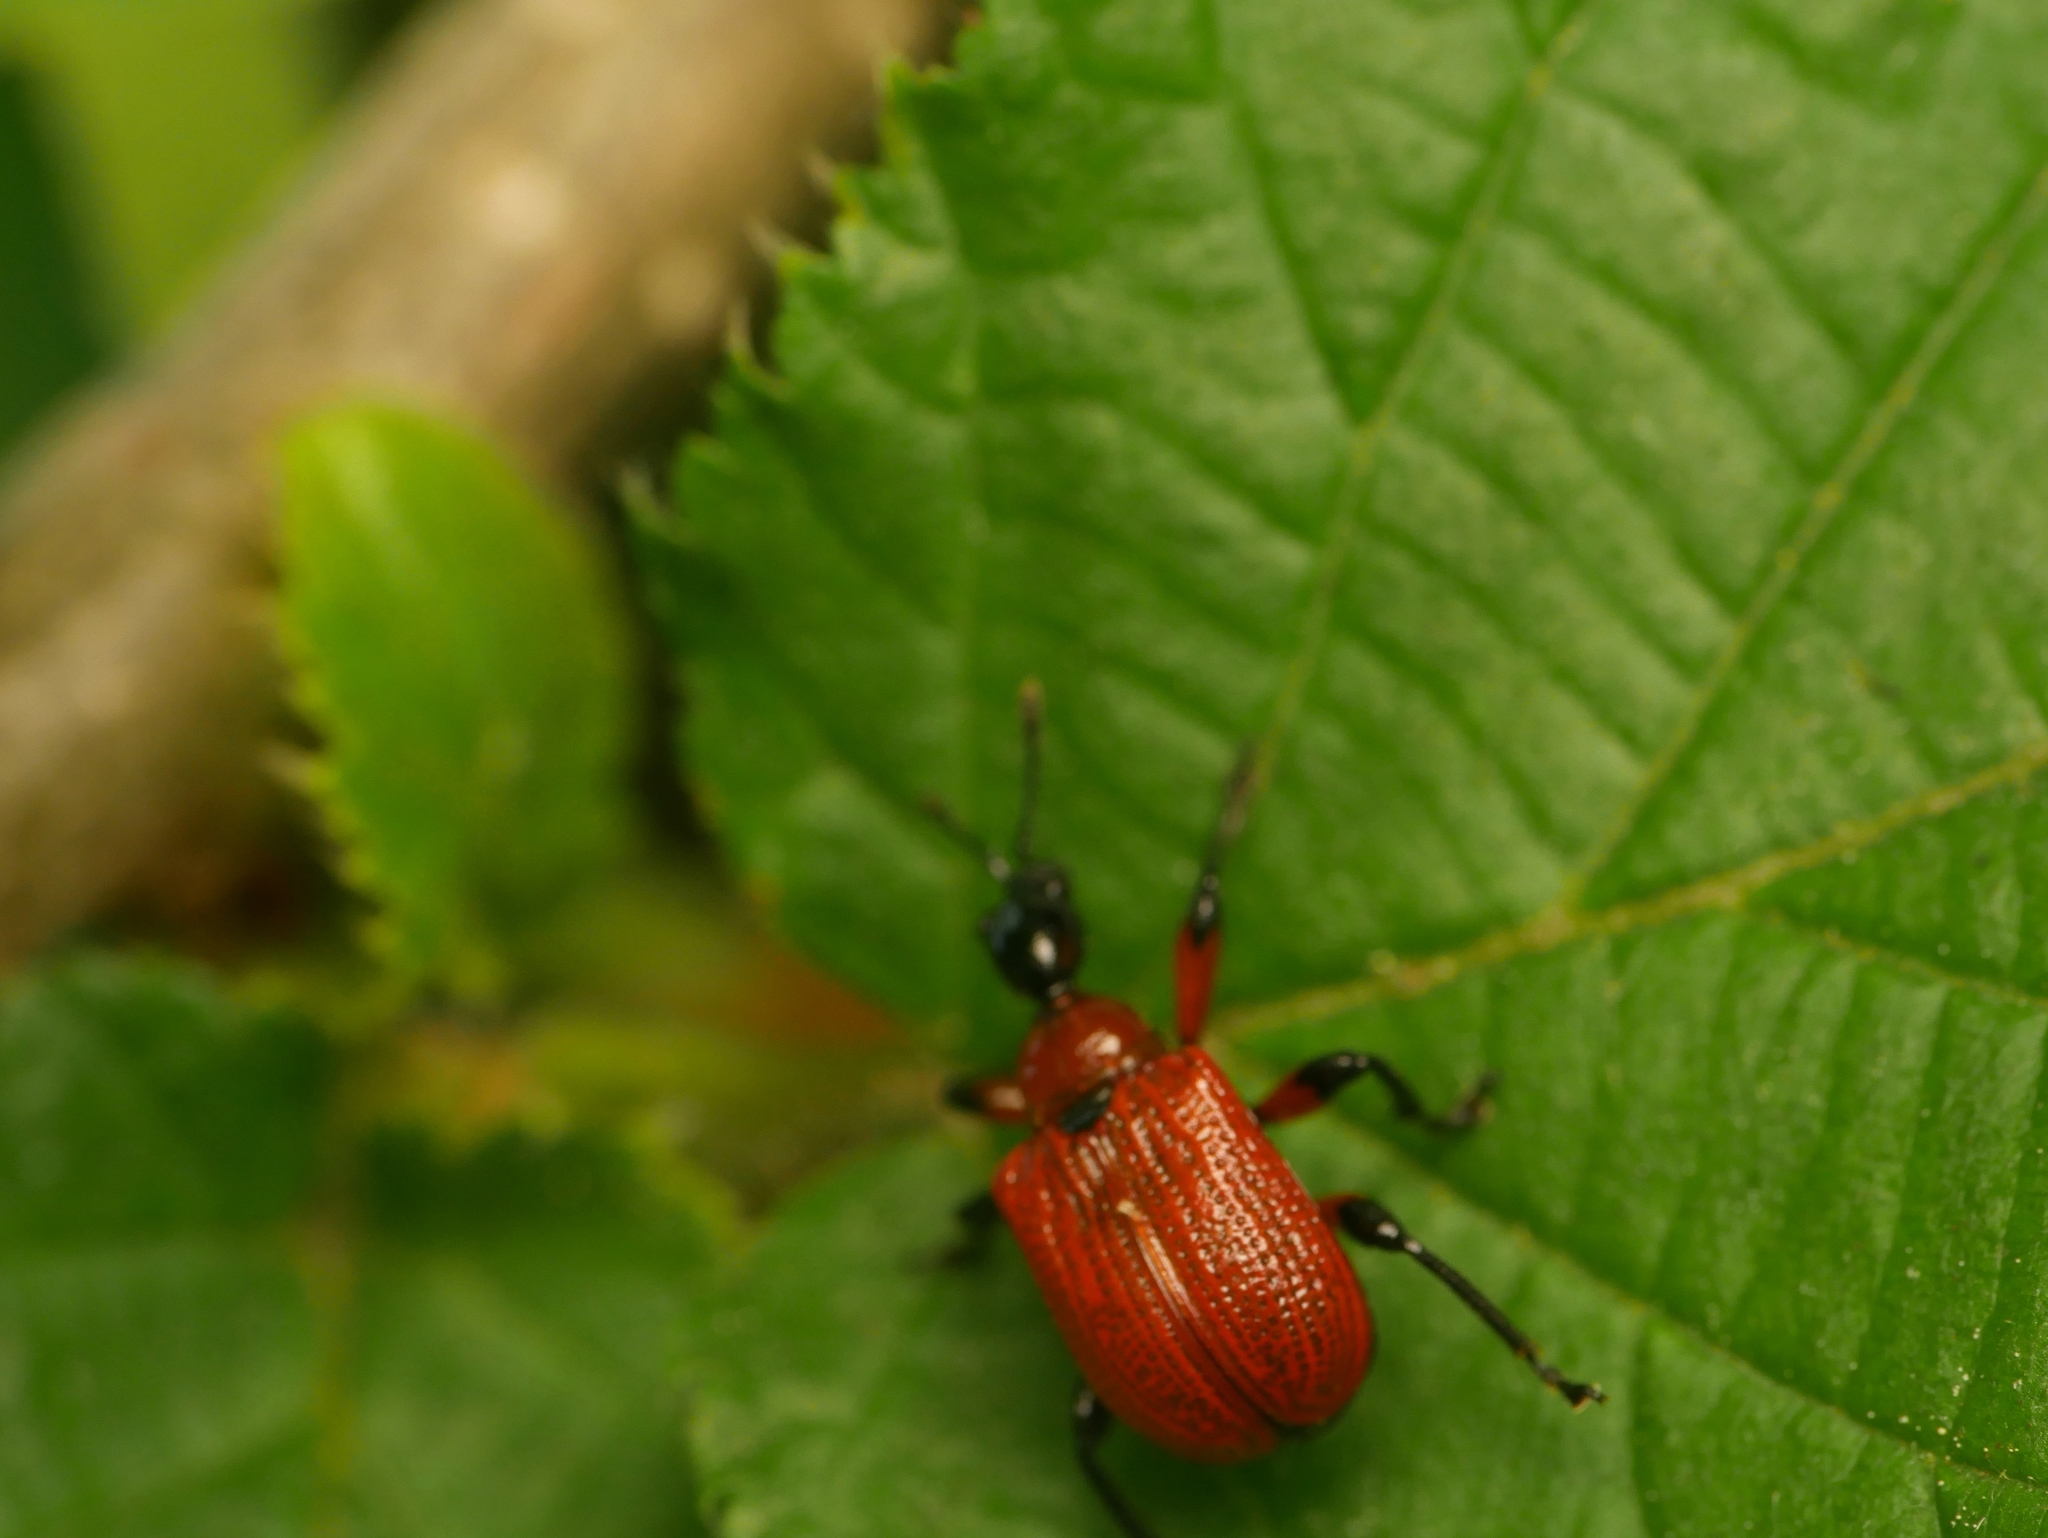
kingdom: Animalia
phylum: Arthropoda
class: Insecta
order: Coleoptera
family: Attelabidae
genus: Apoderus
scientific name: Apoderus coryli
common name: Hazel leaf roller
